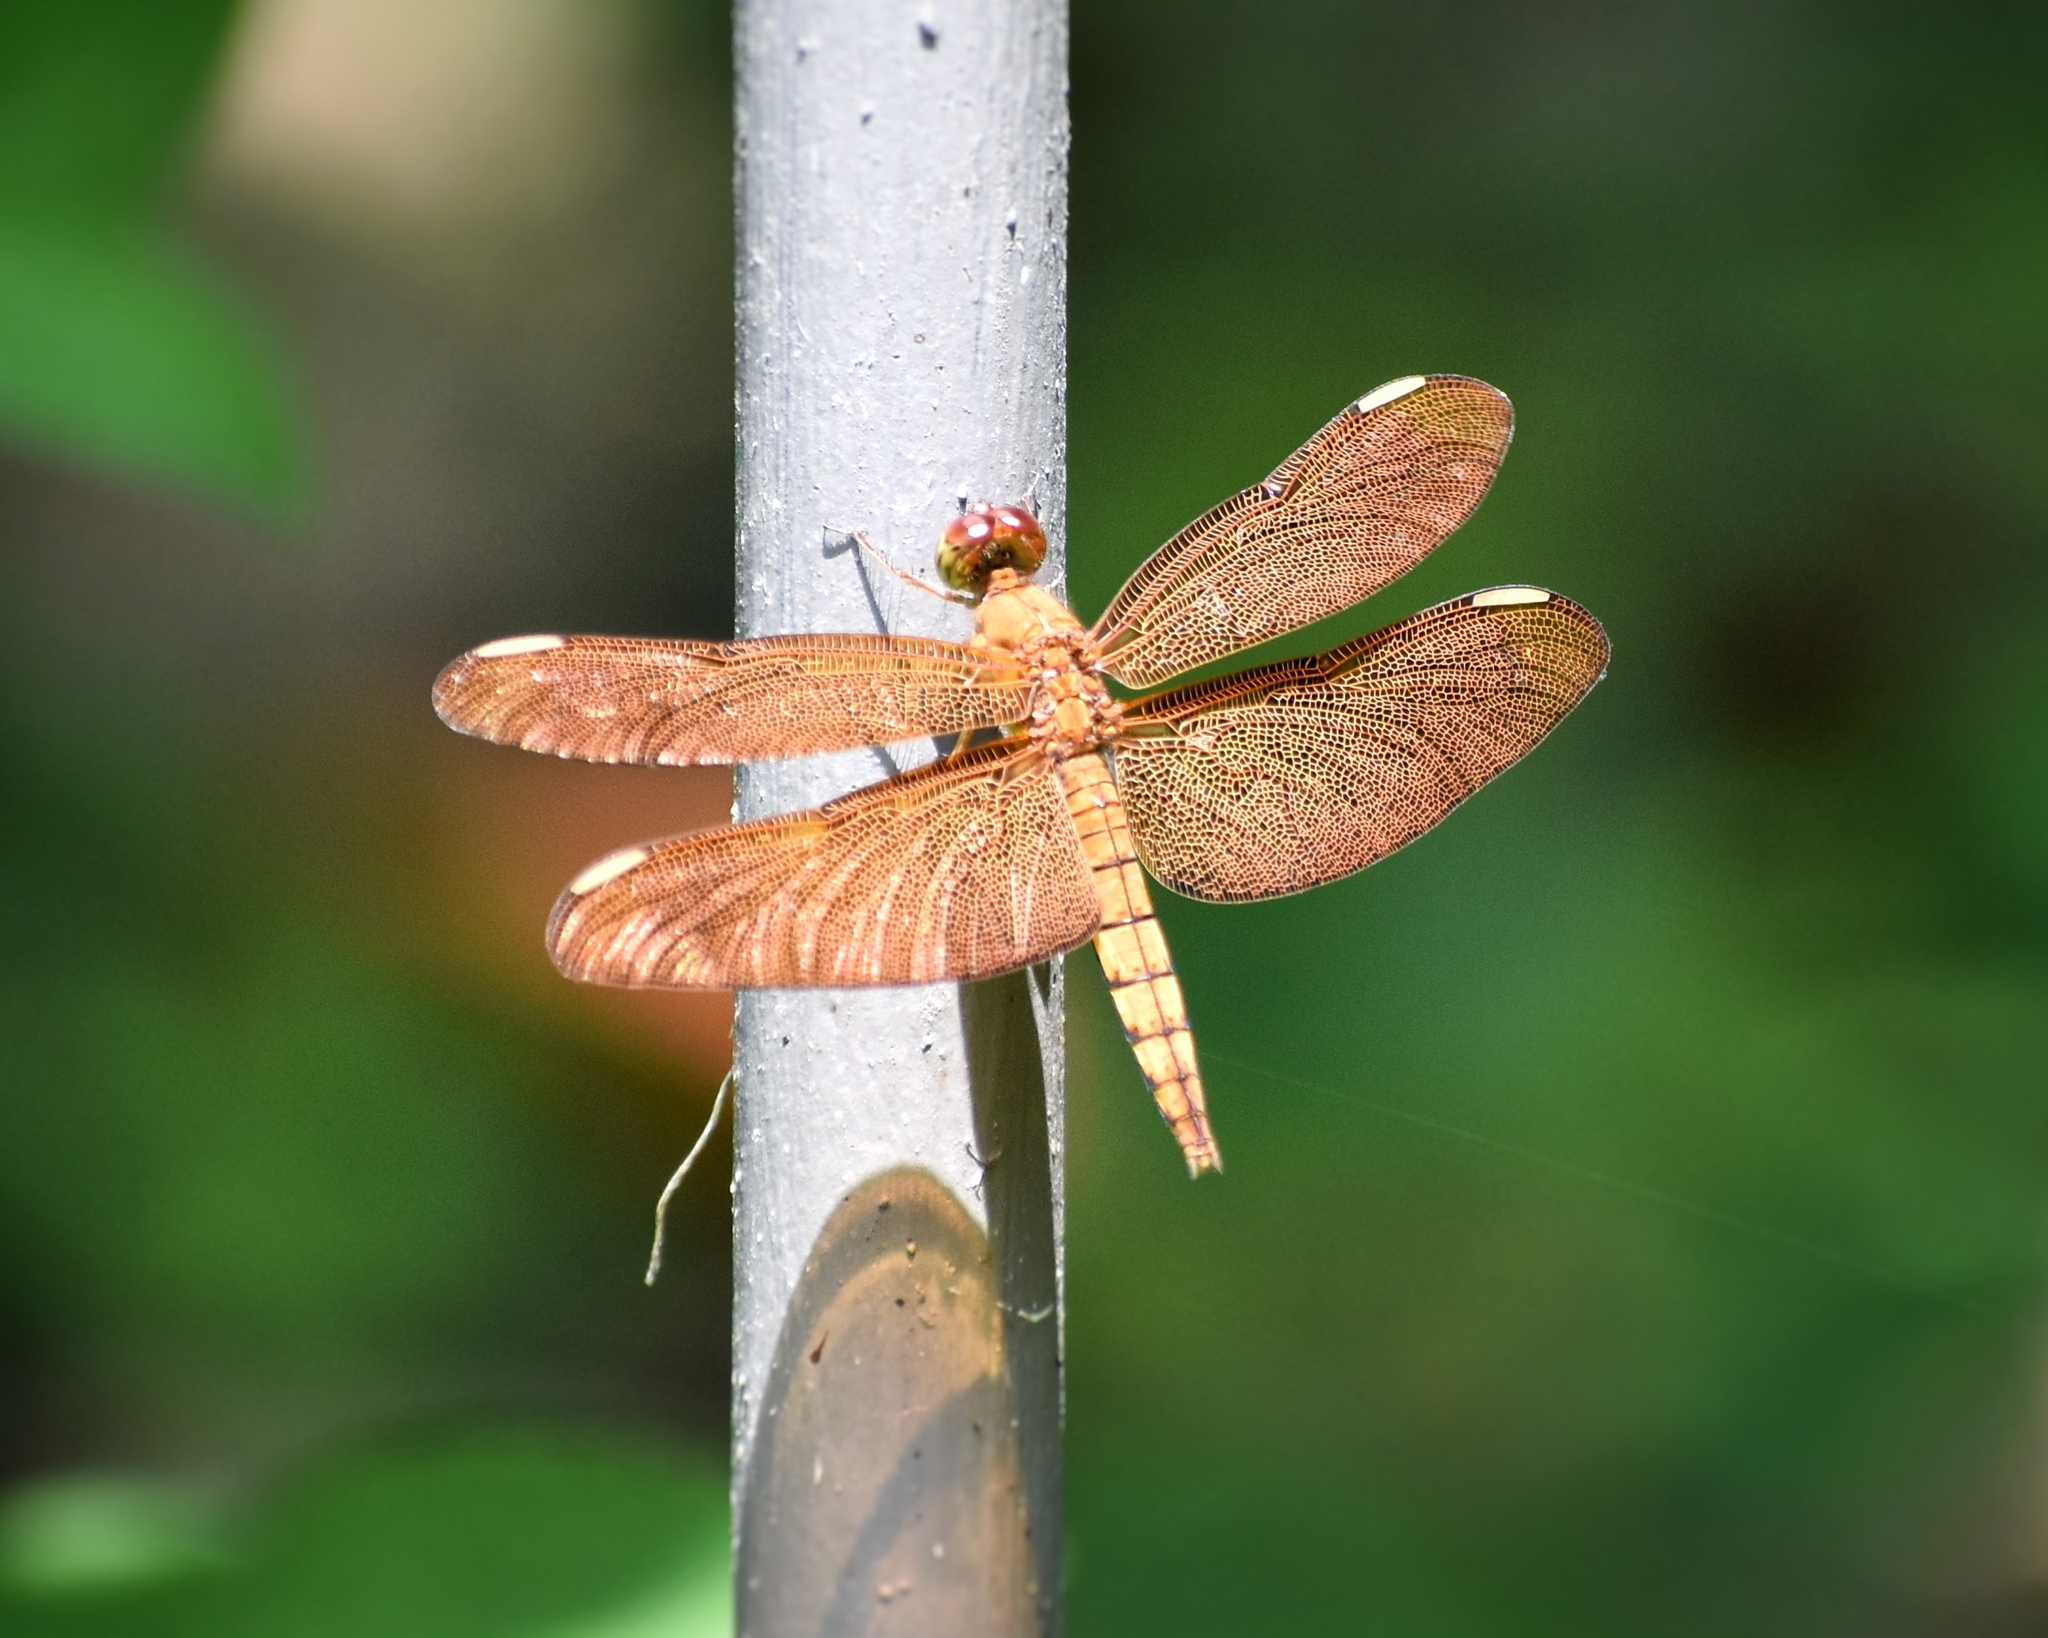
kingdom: Animalia
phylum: Arthropoda
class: Insecta
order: Odonata
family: Libellulidae
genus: Neurothemis
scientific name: Neurothemis fulvia
